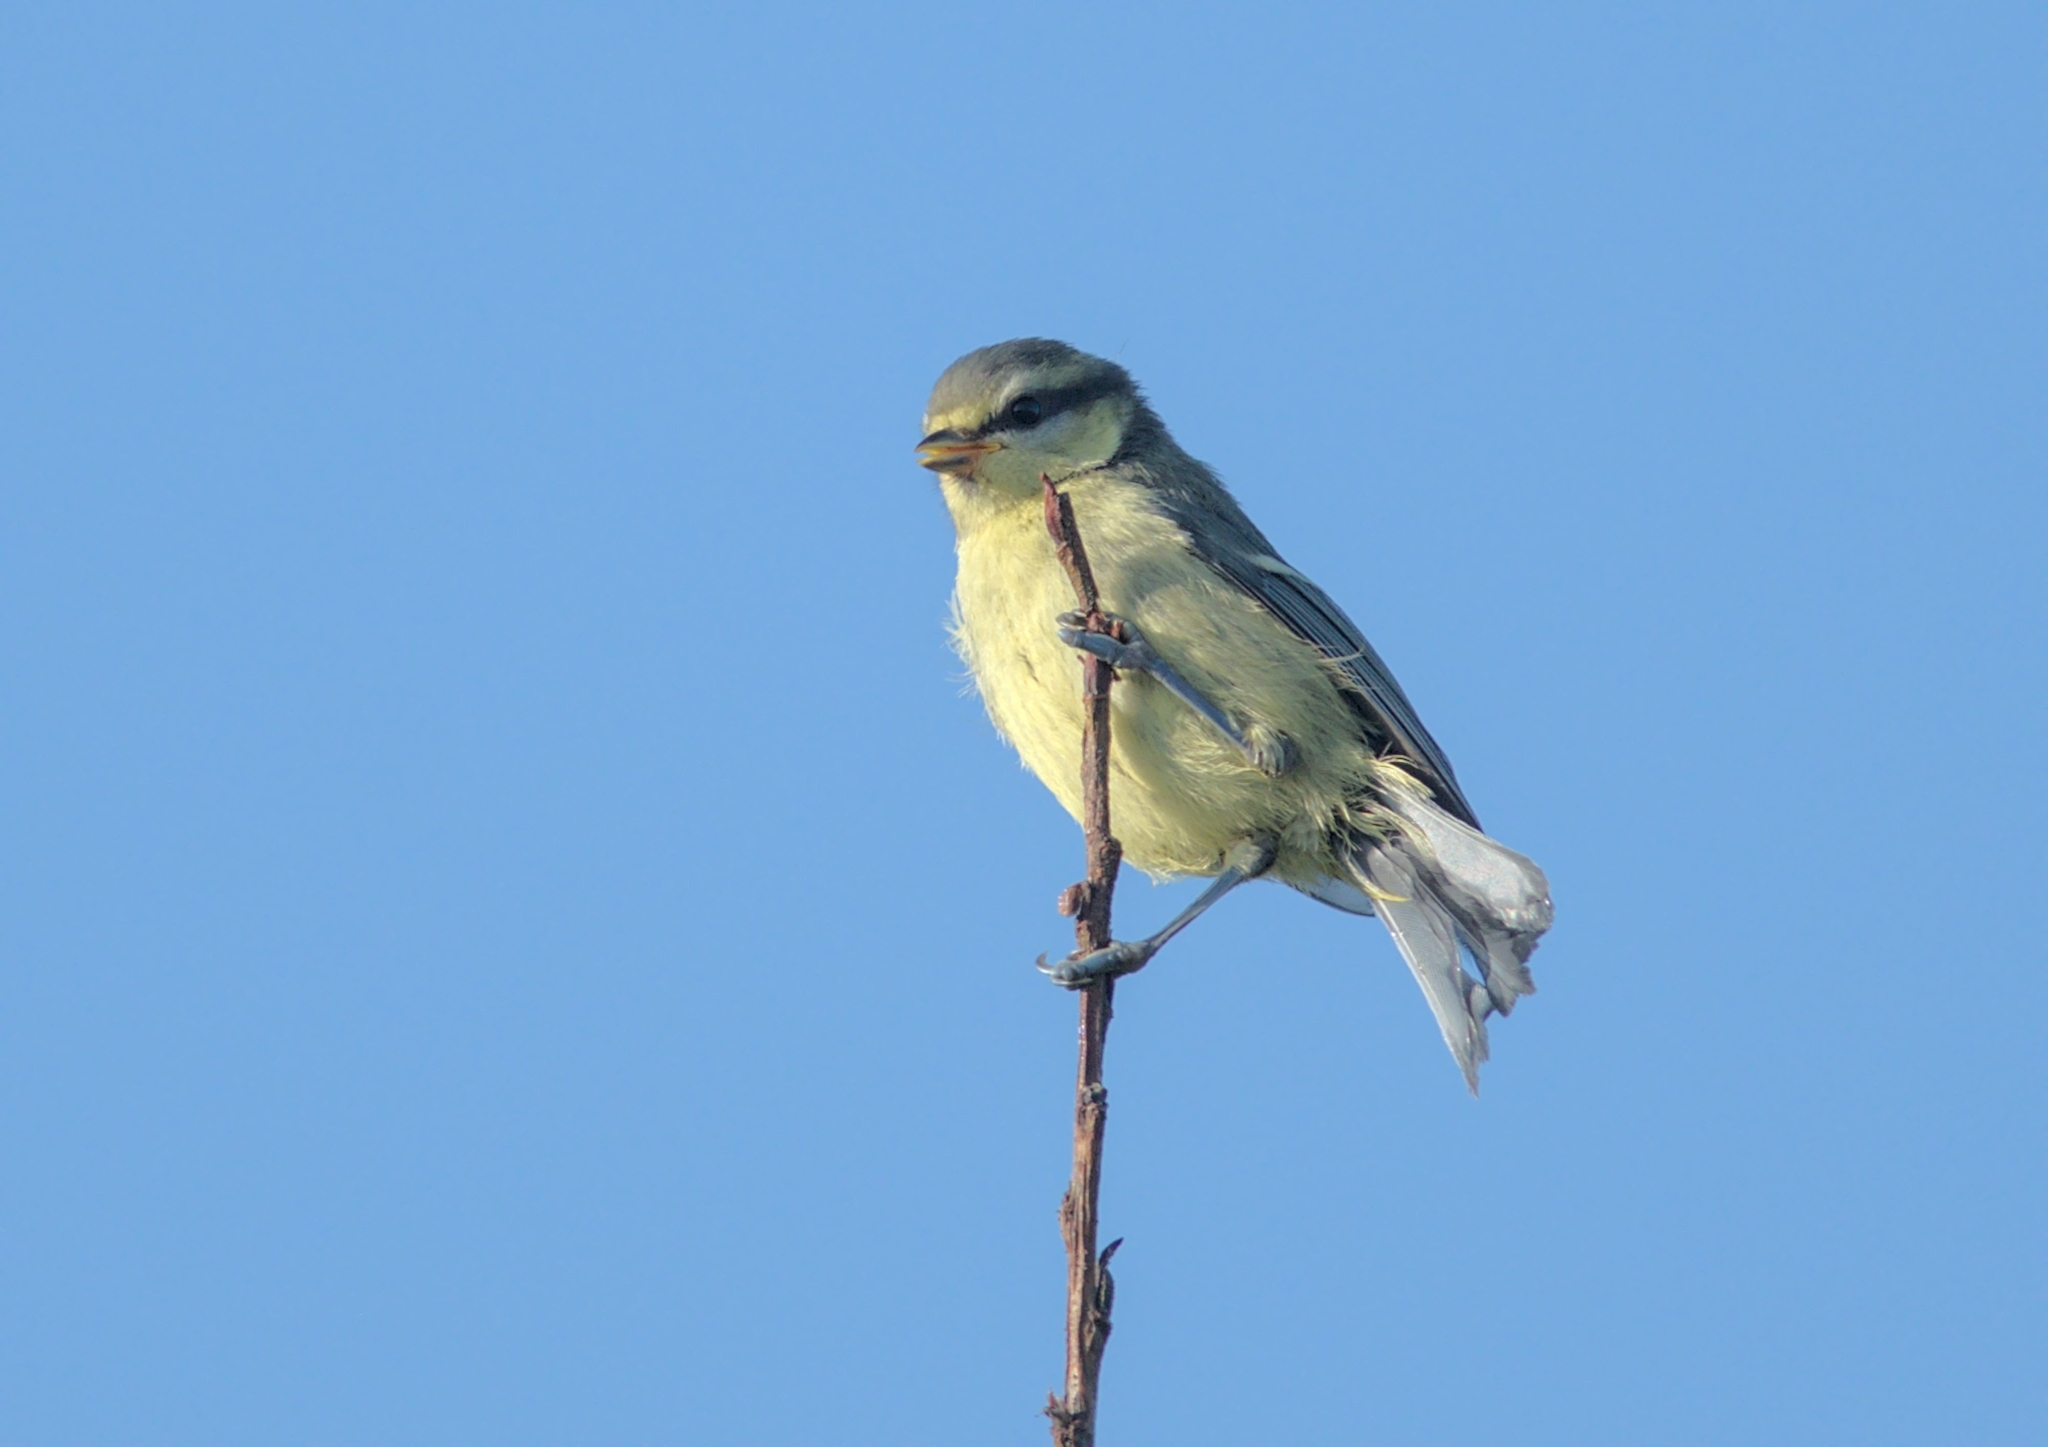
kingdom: Animalia
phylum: Chordata
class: Aves
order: Passeriformes
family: Paridae
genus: Cyanistes
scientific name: Cyanistes caeruleus
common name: Eurasian blue tit
